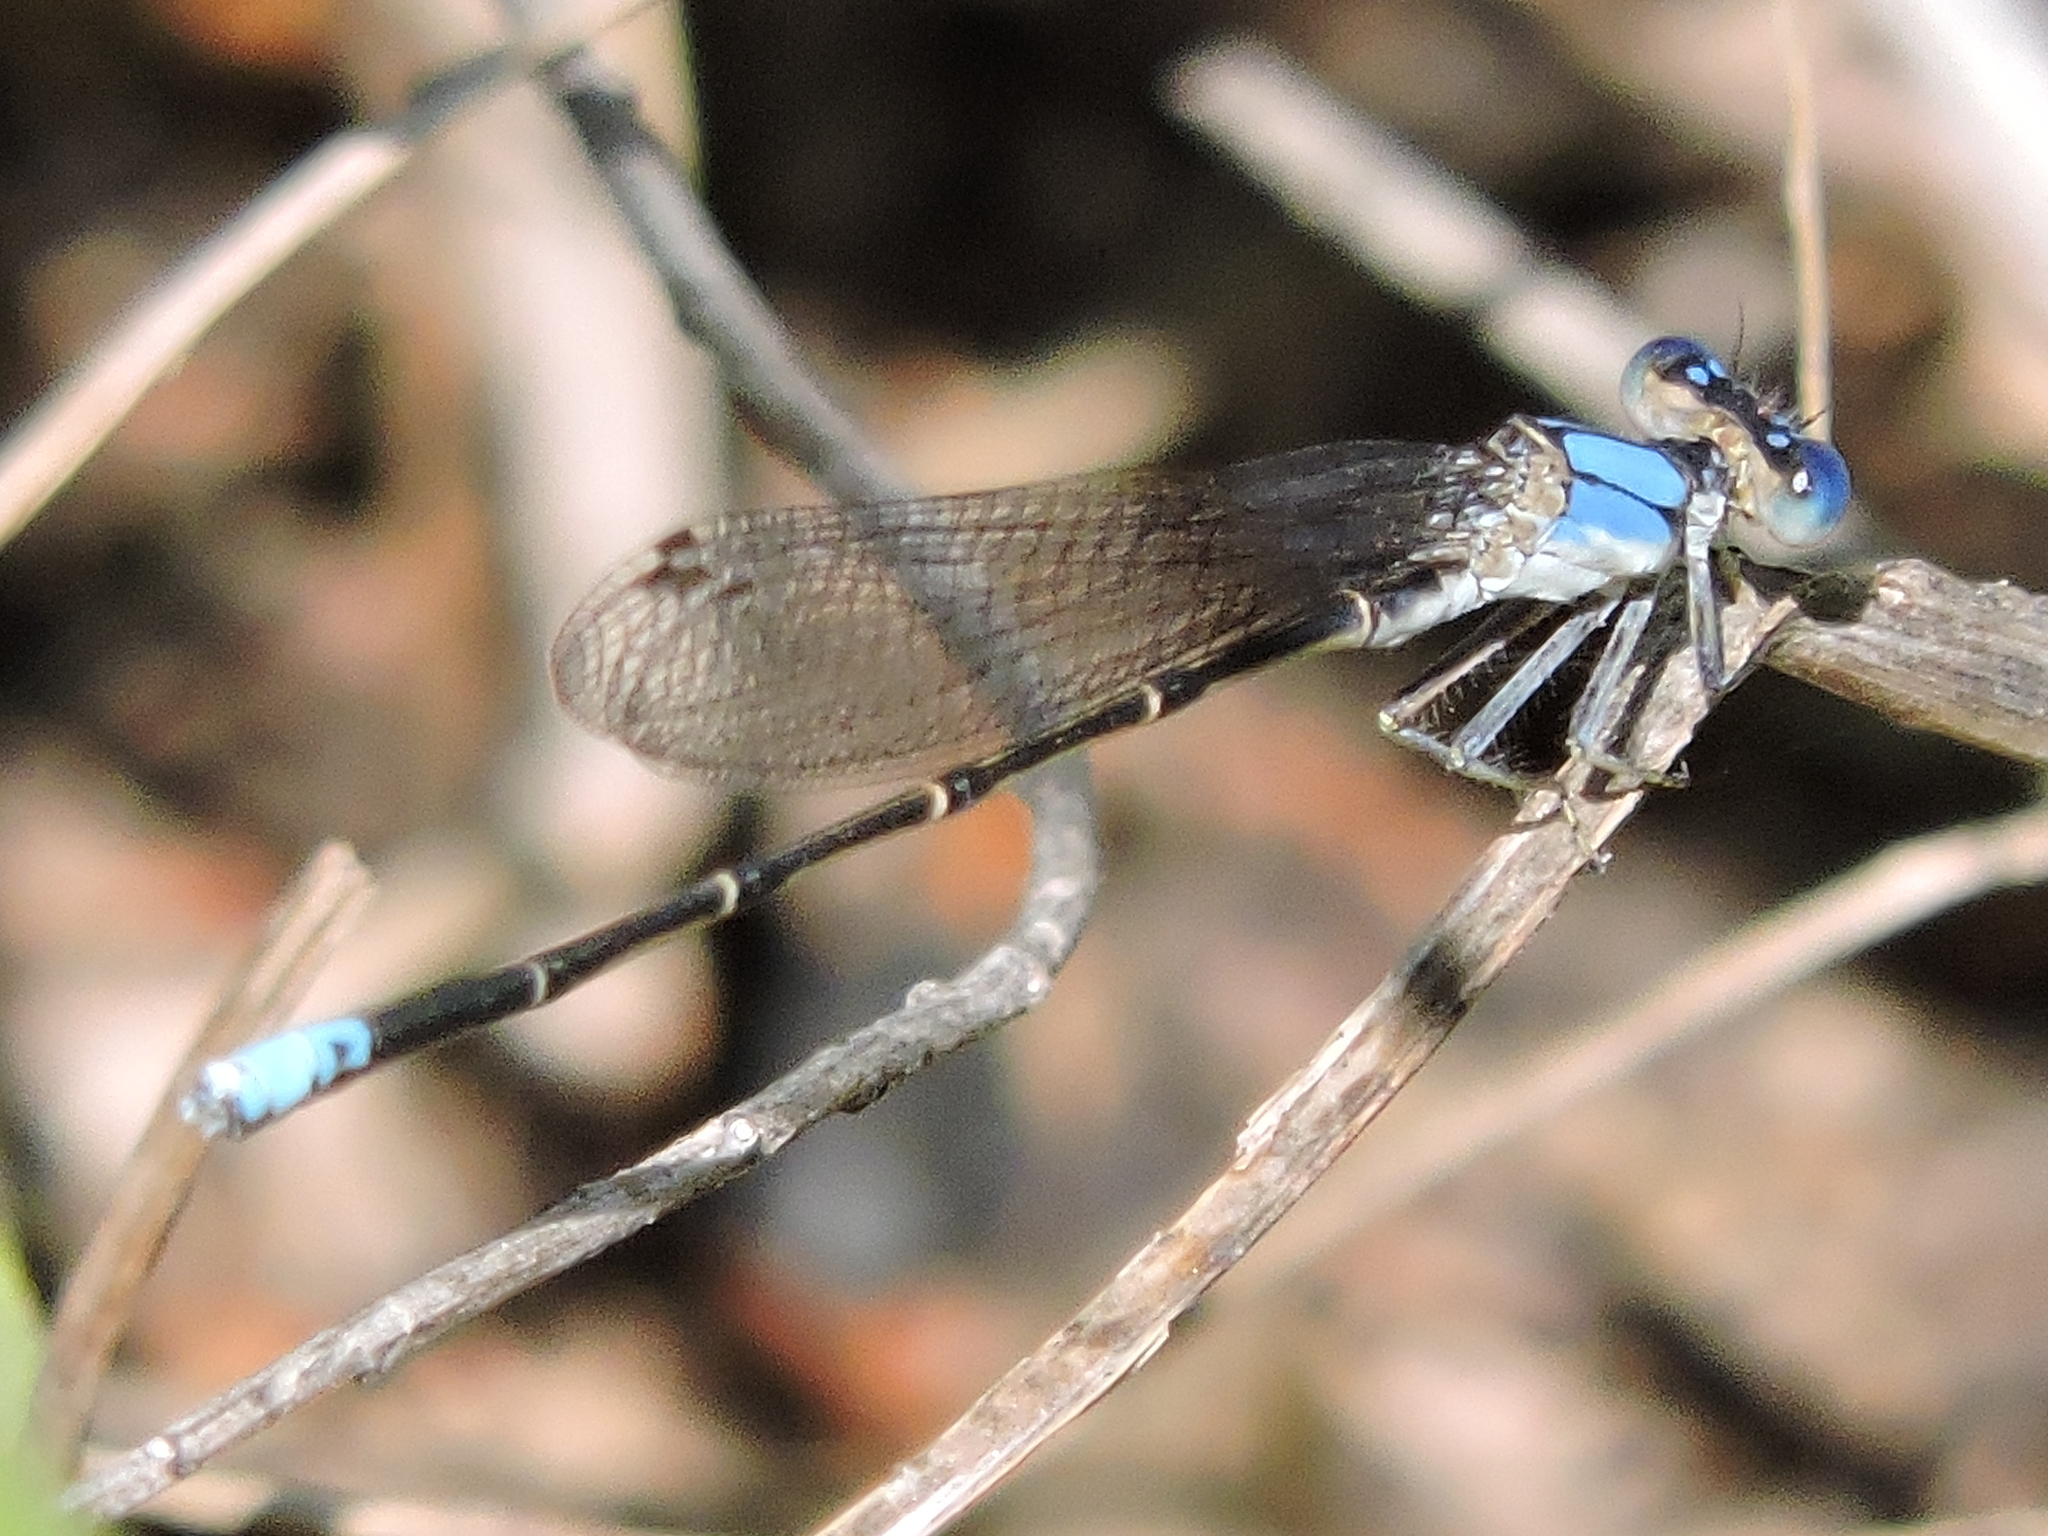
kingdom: Animalia
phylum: Arthropoda
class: Insecta
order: Odonata
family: Coenagrionidae
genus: Argia
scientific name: Argia apicalis
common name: Blue-fronted dancer
